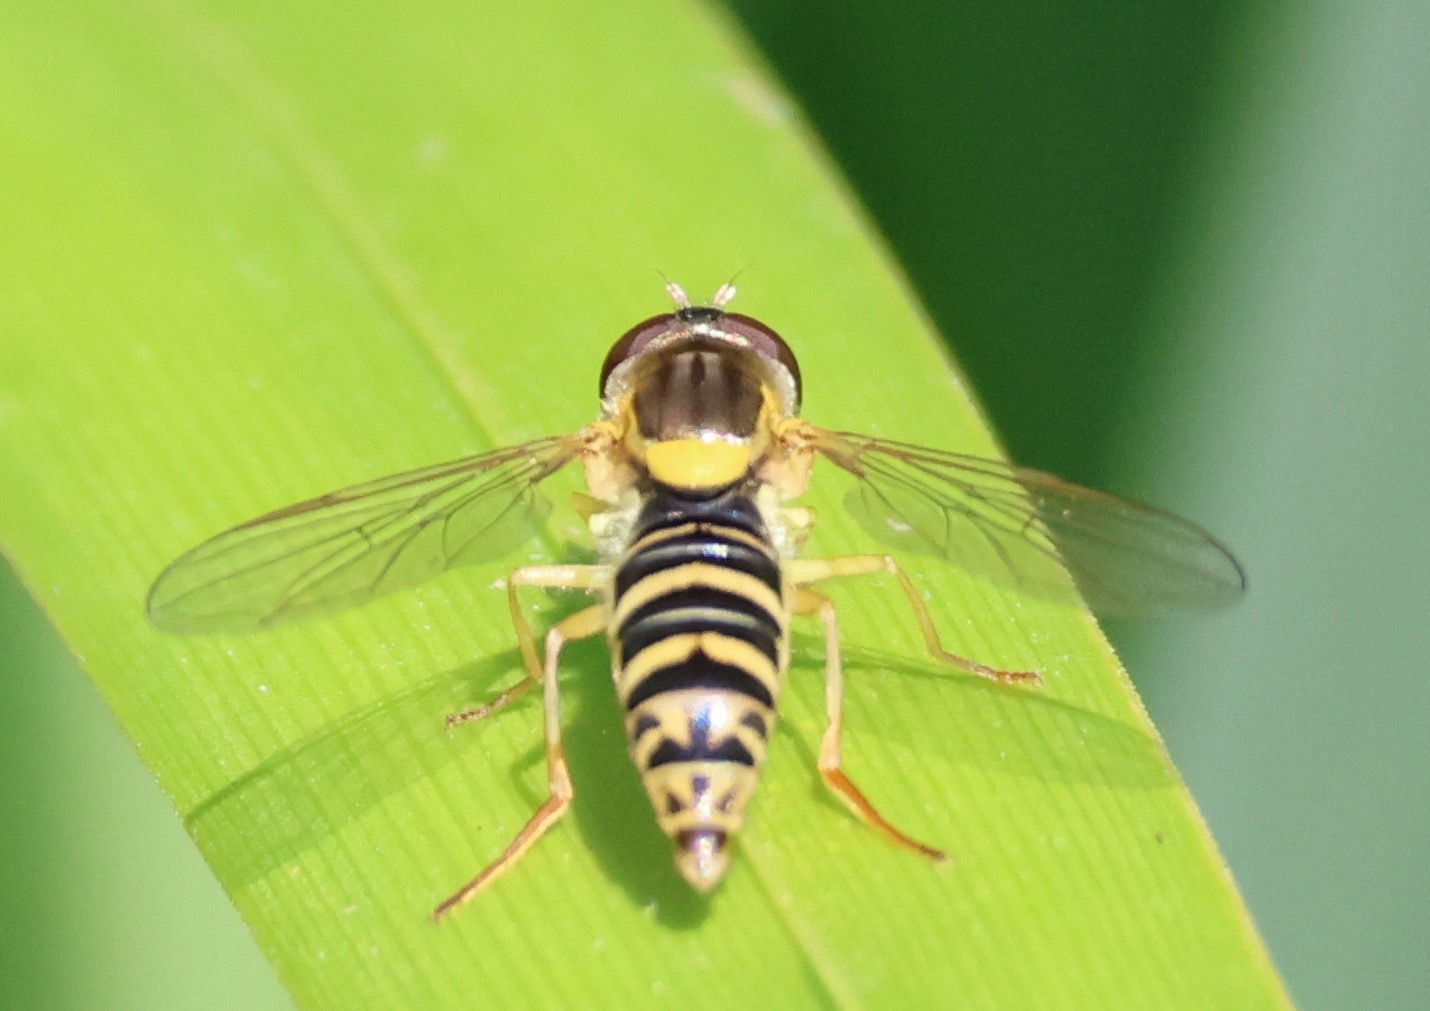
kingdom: Animalia
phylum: Arthropoda
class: Insecta
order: Diptera
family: Syrphidae
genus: Sphaerophoria
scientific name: Sphaerophoria
